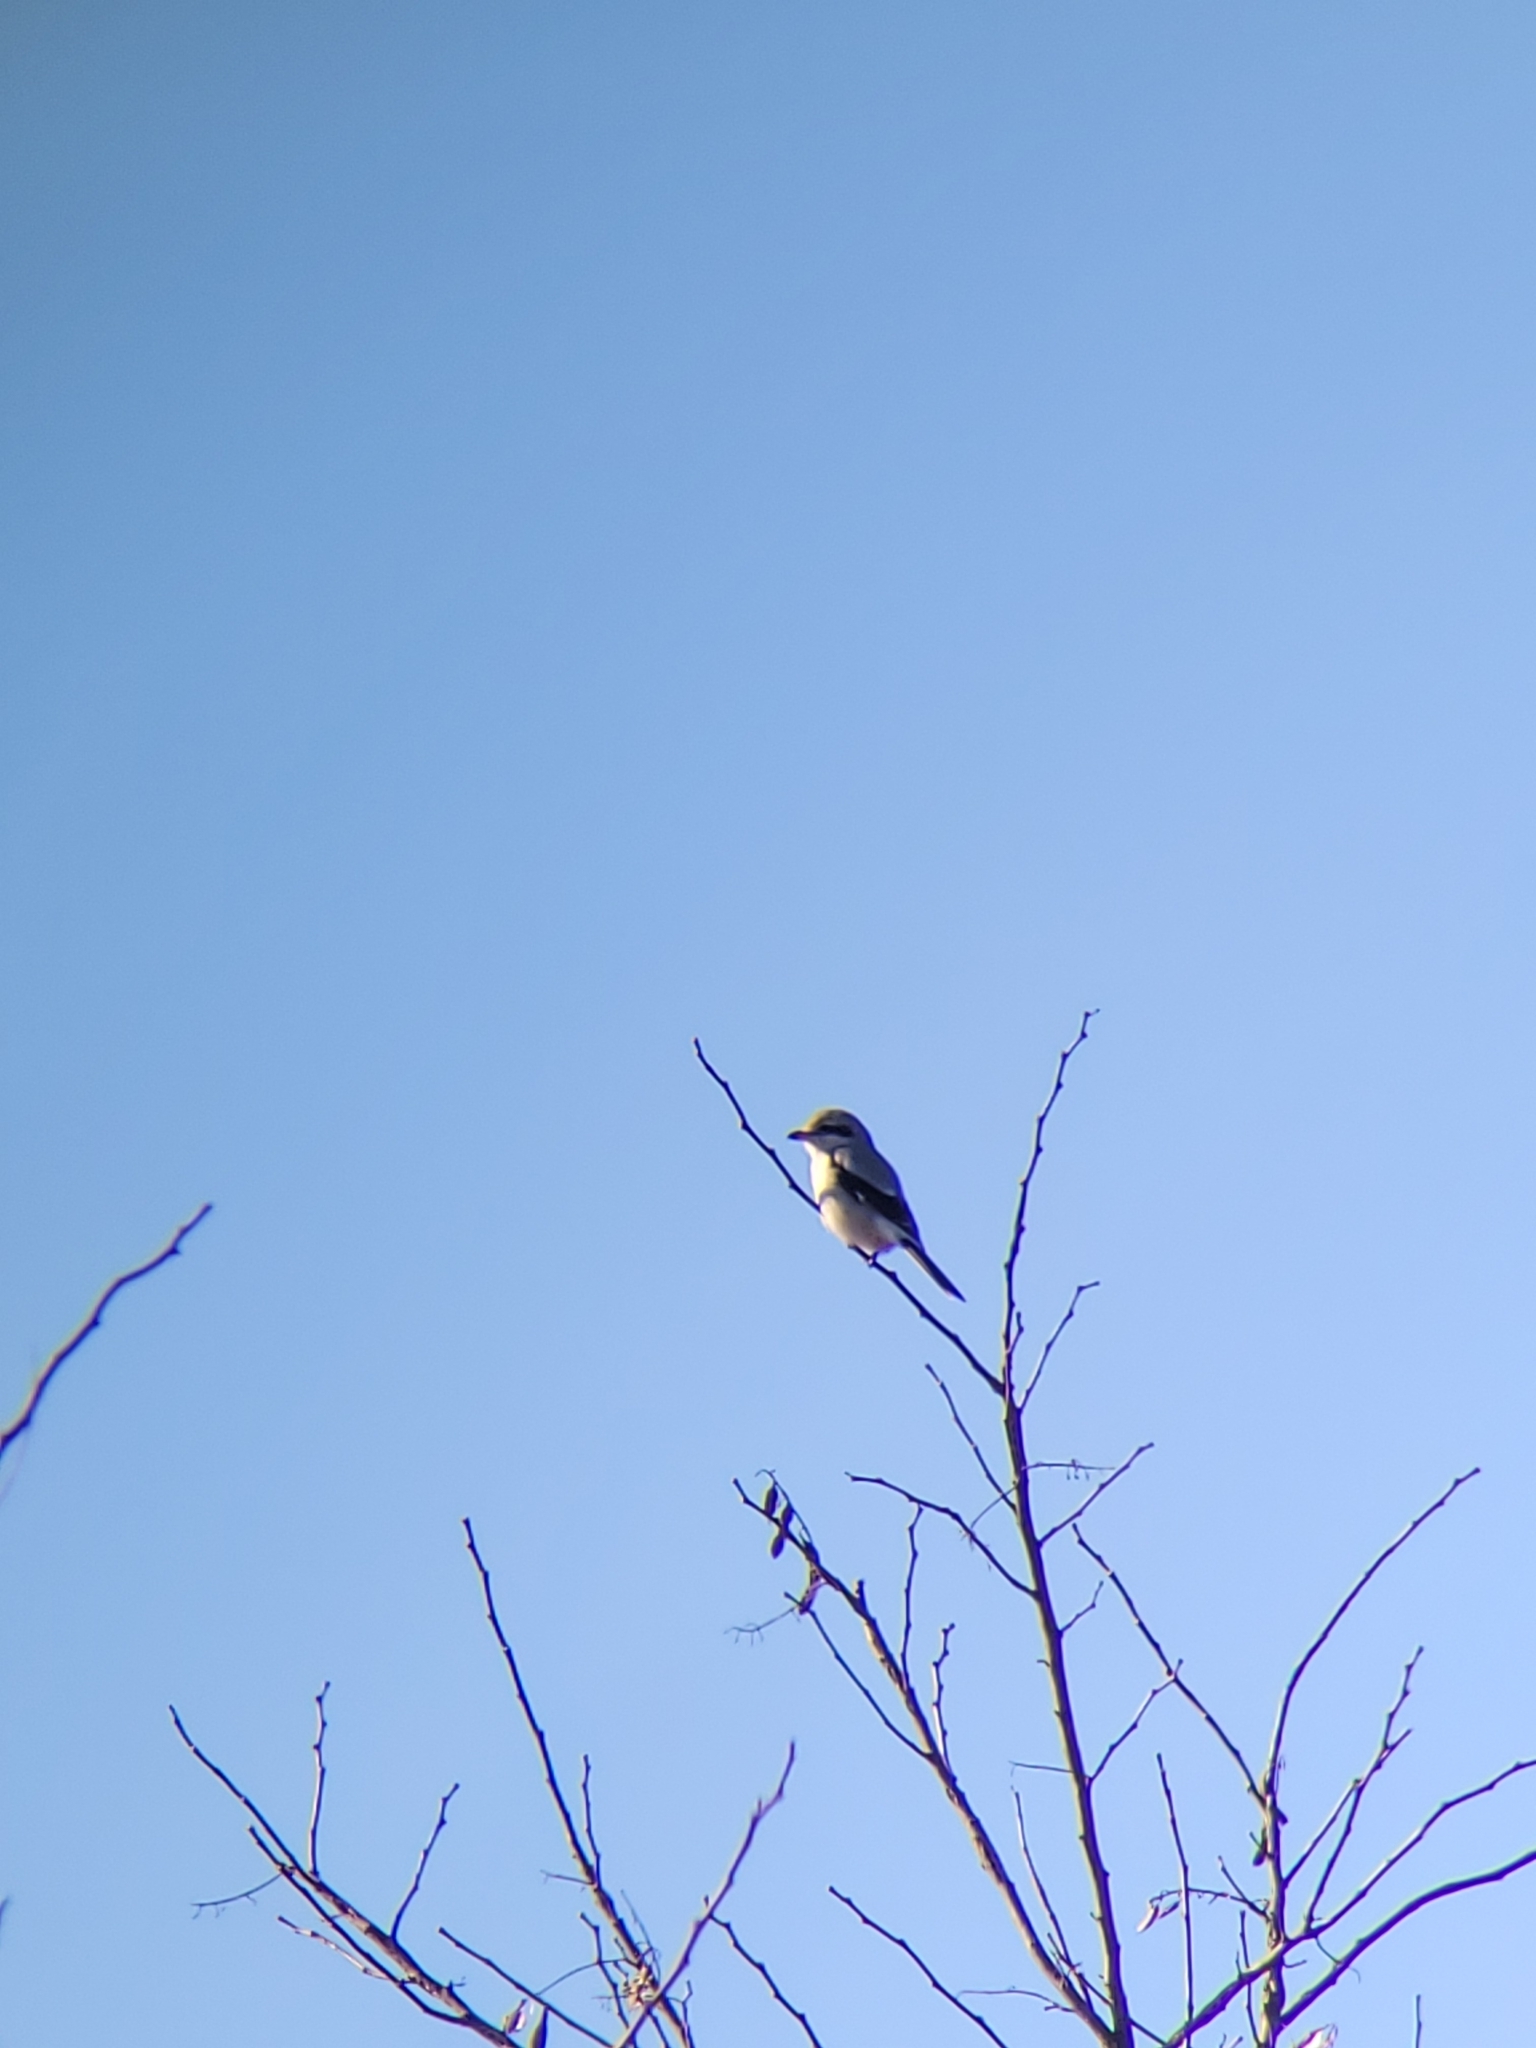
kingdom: Animalia
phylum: Chordata
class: Aves
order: Passeriformes
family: Laniidae
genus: Lanius
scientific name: Lanius borealis
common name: Northern shrike
